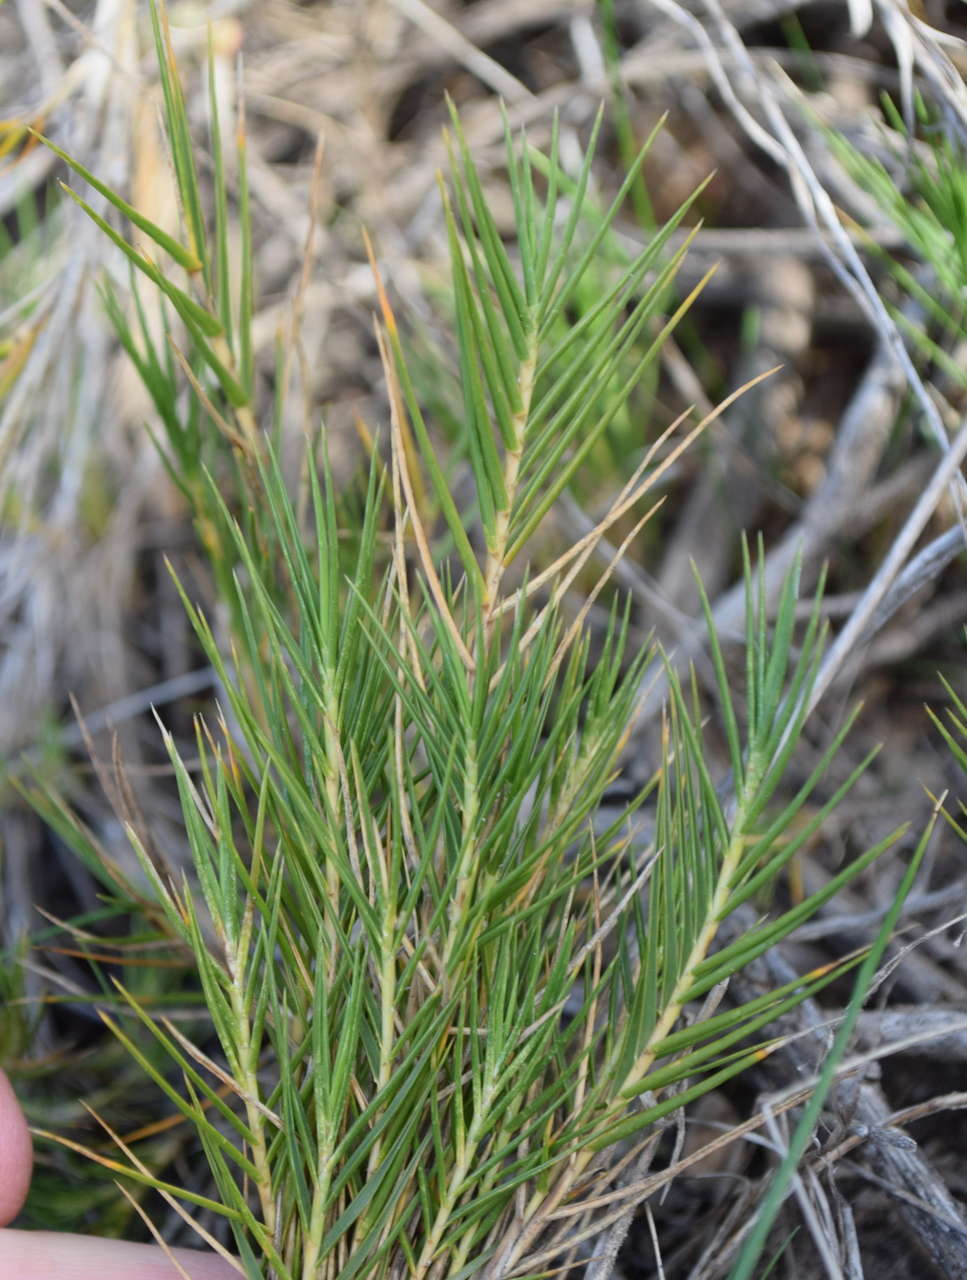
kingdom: Plantae
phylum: Tracheophyta
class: Liliopsida
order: Poales
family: Poaceae
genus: Distichlis
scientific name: Distichlis distichophylla
